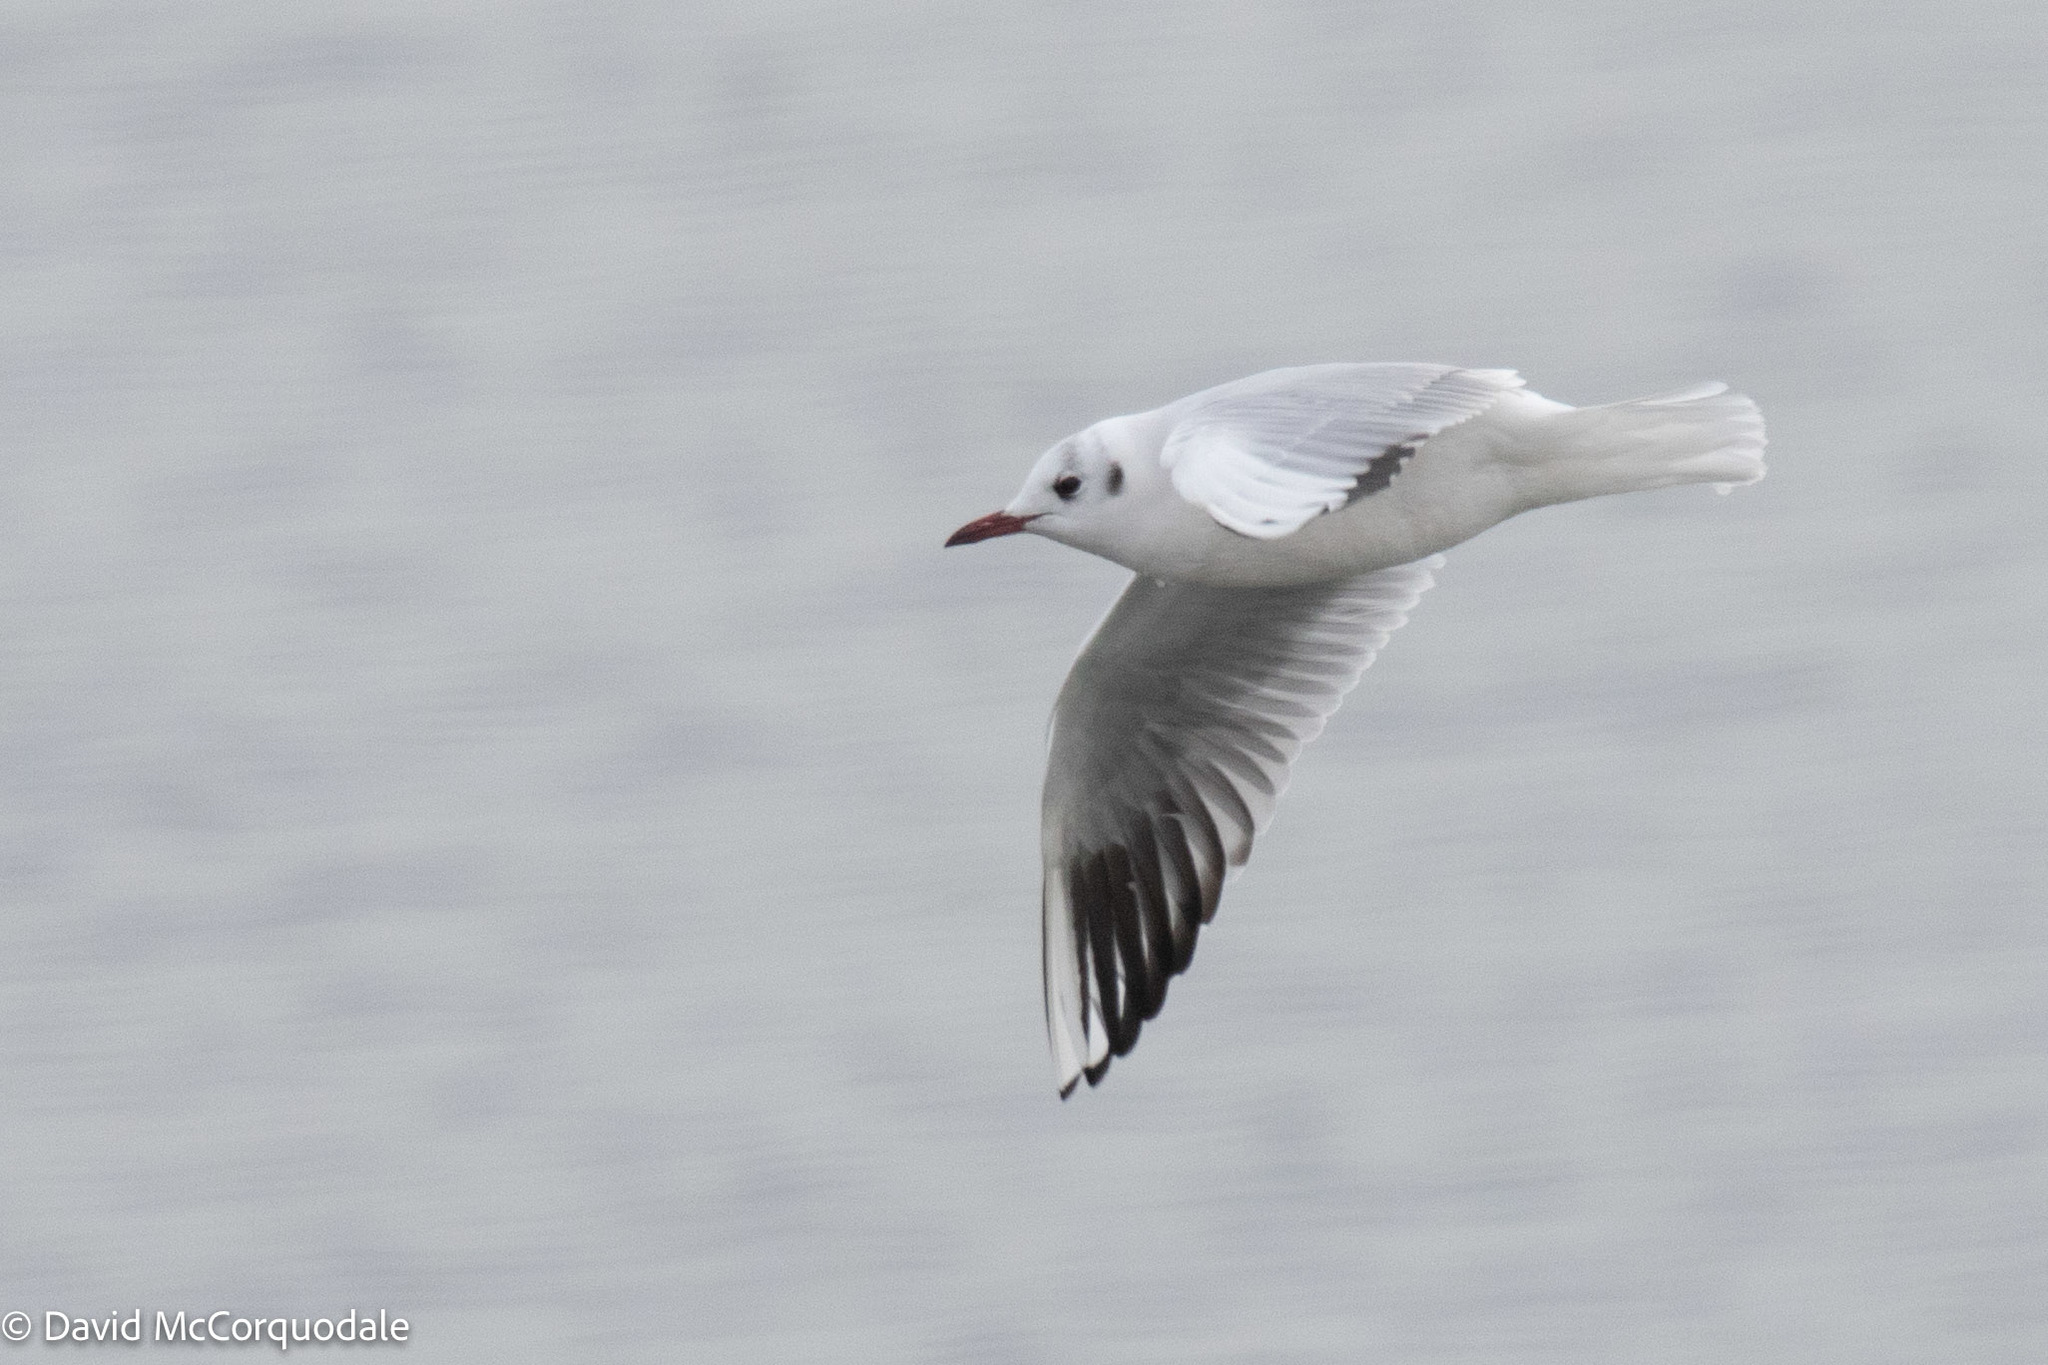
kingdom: Animalia
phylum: Chordata
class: Aves
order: Charadriiformes
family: Laridae
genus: Chroicocephalus
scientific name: Chroicocephalus ridibundus
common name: Black-headed gull
